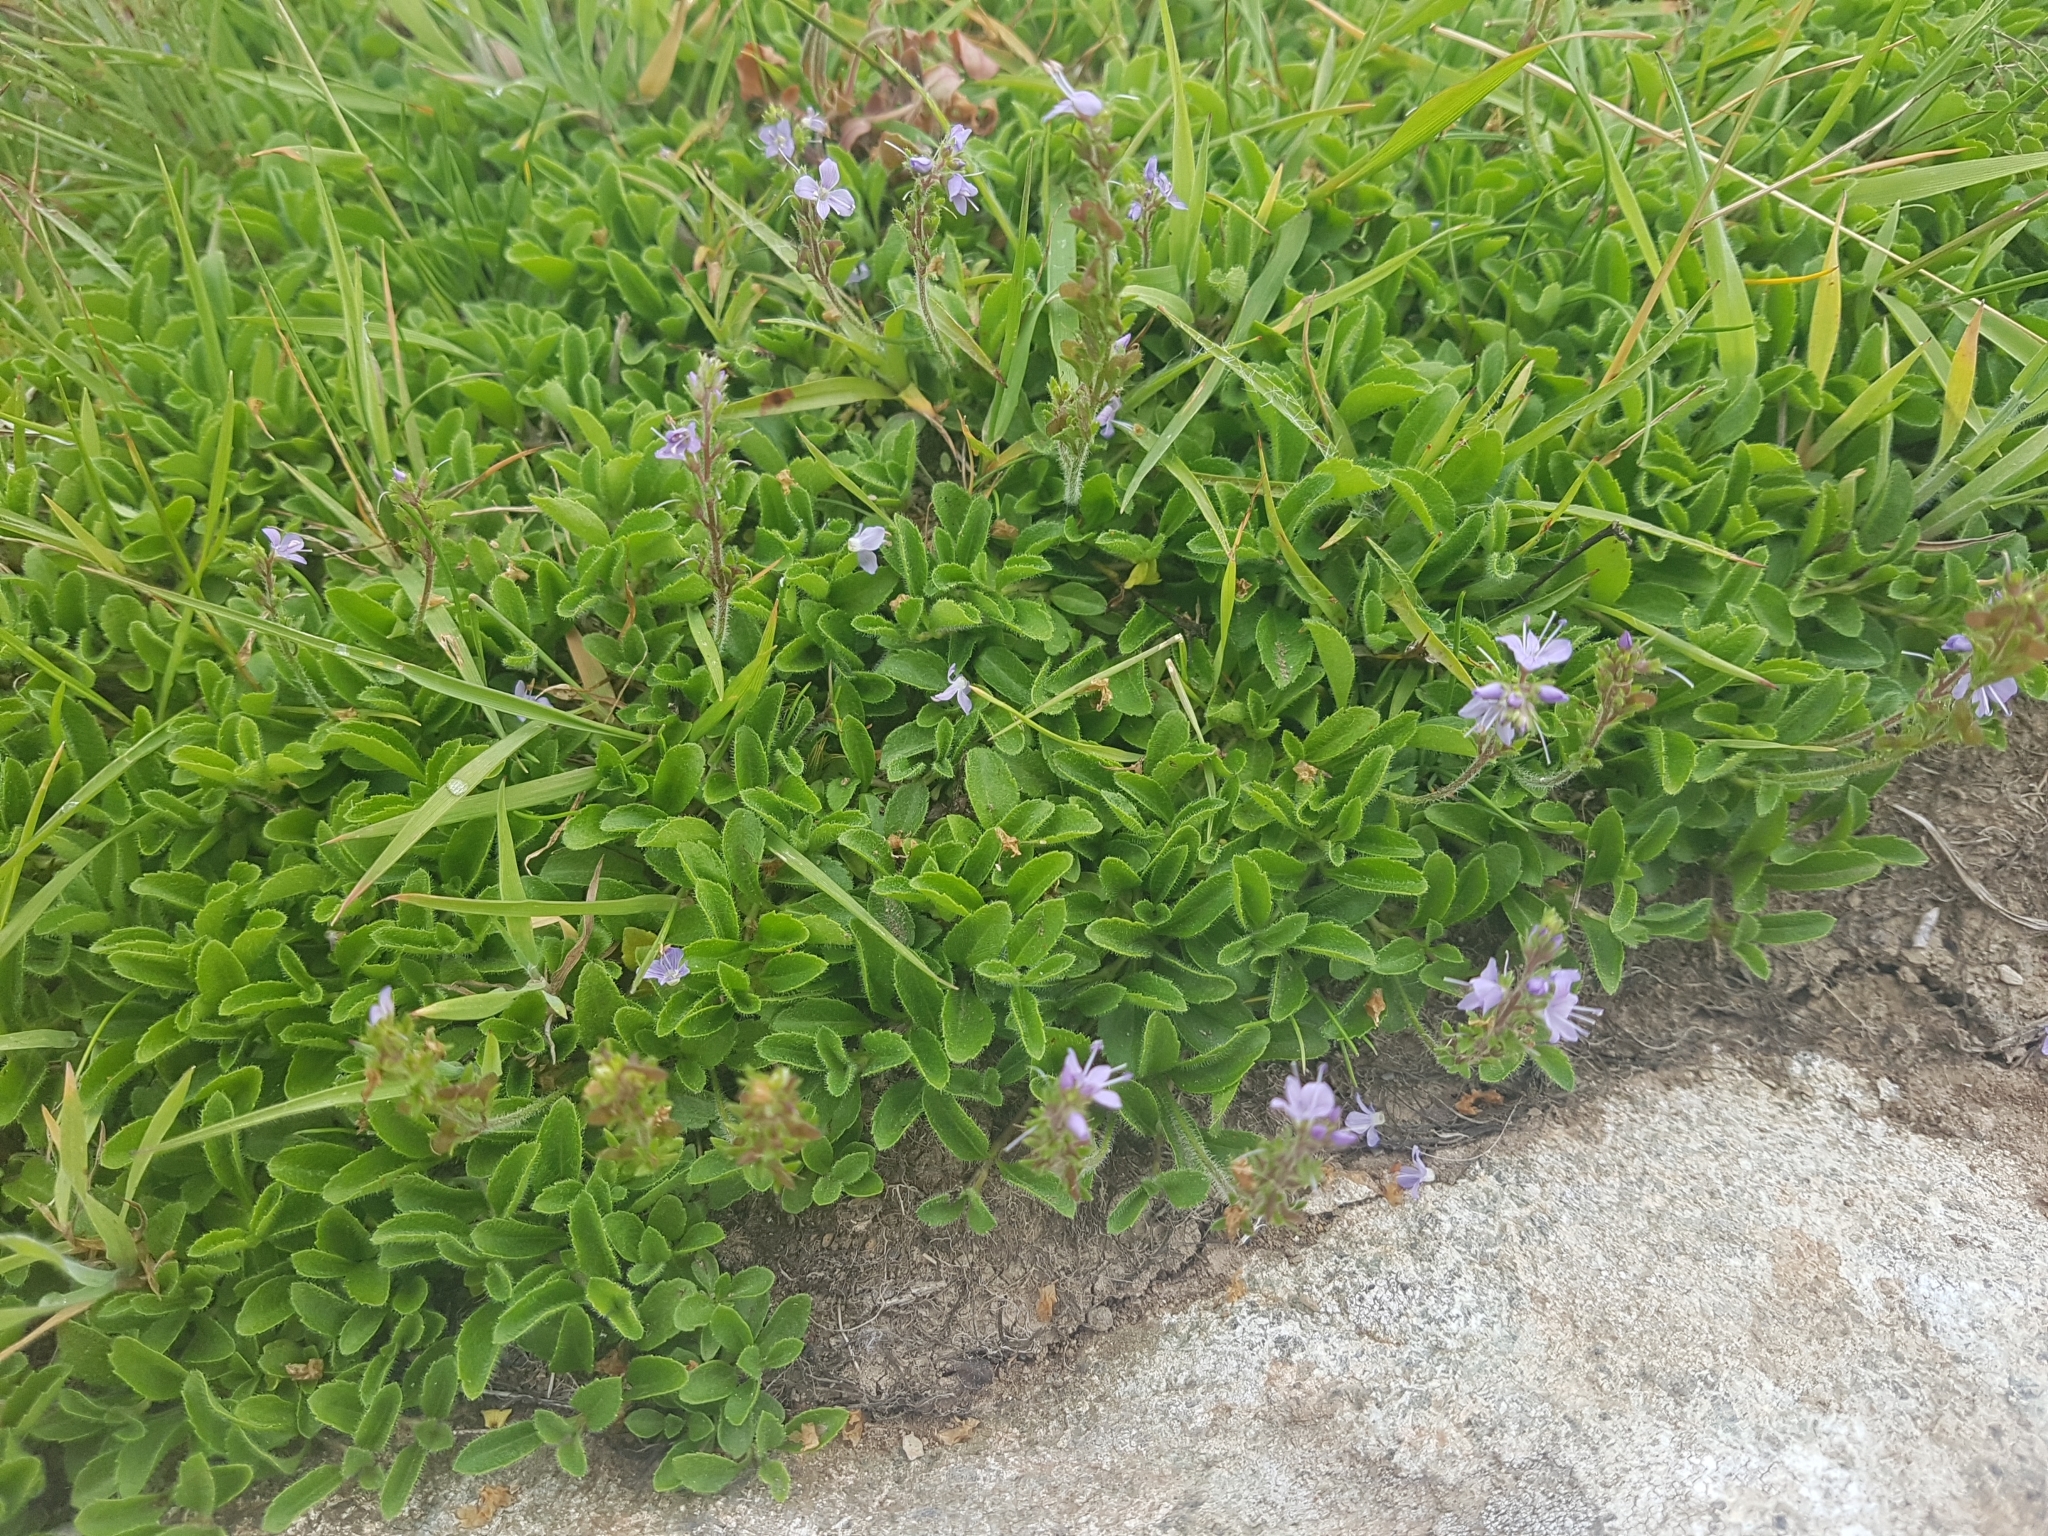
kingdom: Plantae
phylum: Tracheophyta
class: Magnoliopsida
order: Lamiales
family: Plantaginaceae
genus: Veronica
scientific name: Veronica officinalis
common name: Common speedwell
